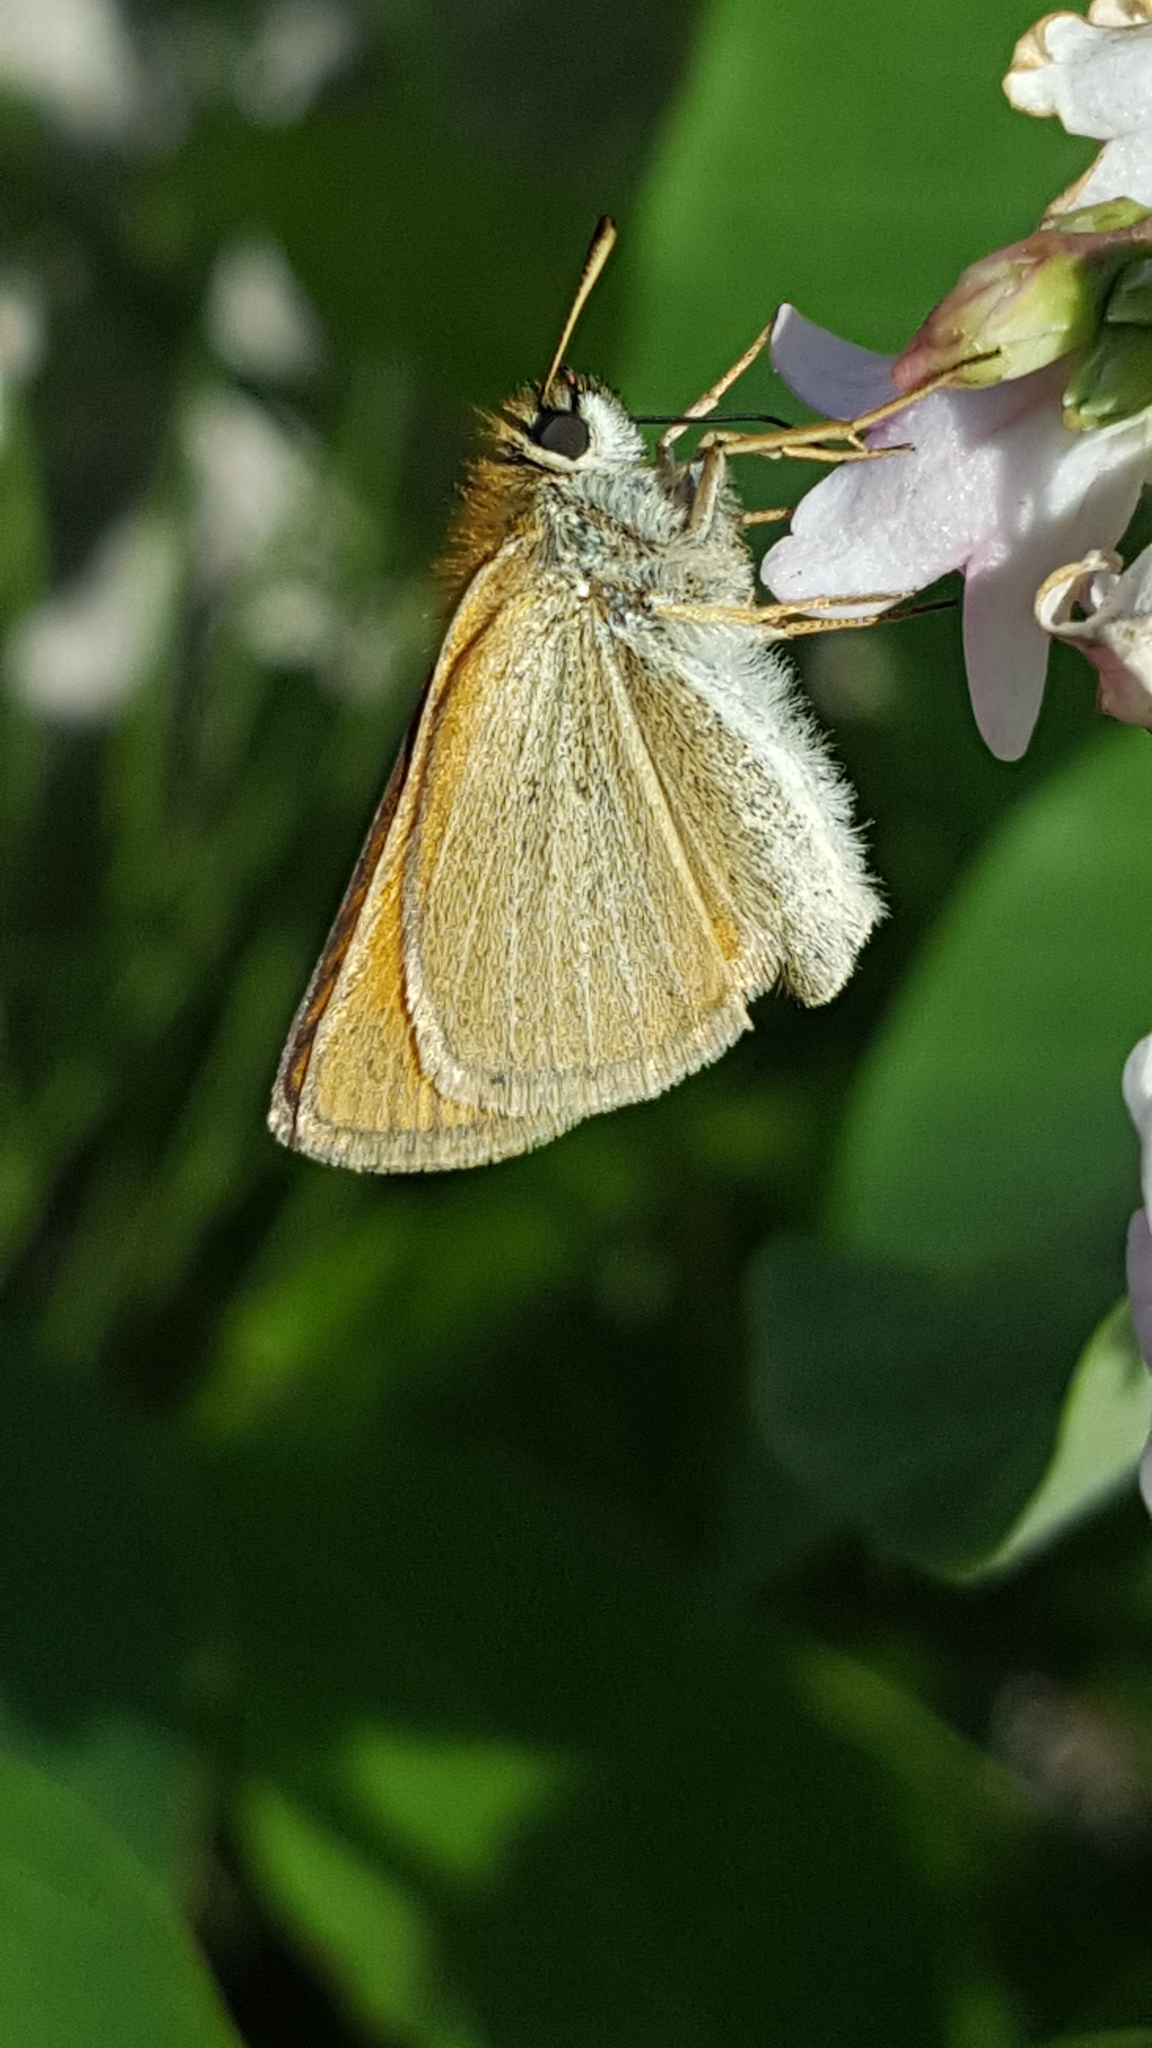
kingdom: Animalia
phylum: Arthropoda
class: Insecta
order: Lepidoptera
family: Hesperiidae
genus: Thymelicus
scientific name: Thymelicus lineola
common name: Essex skipper
